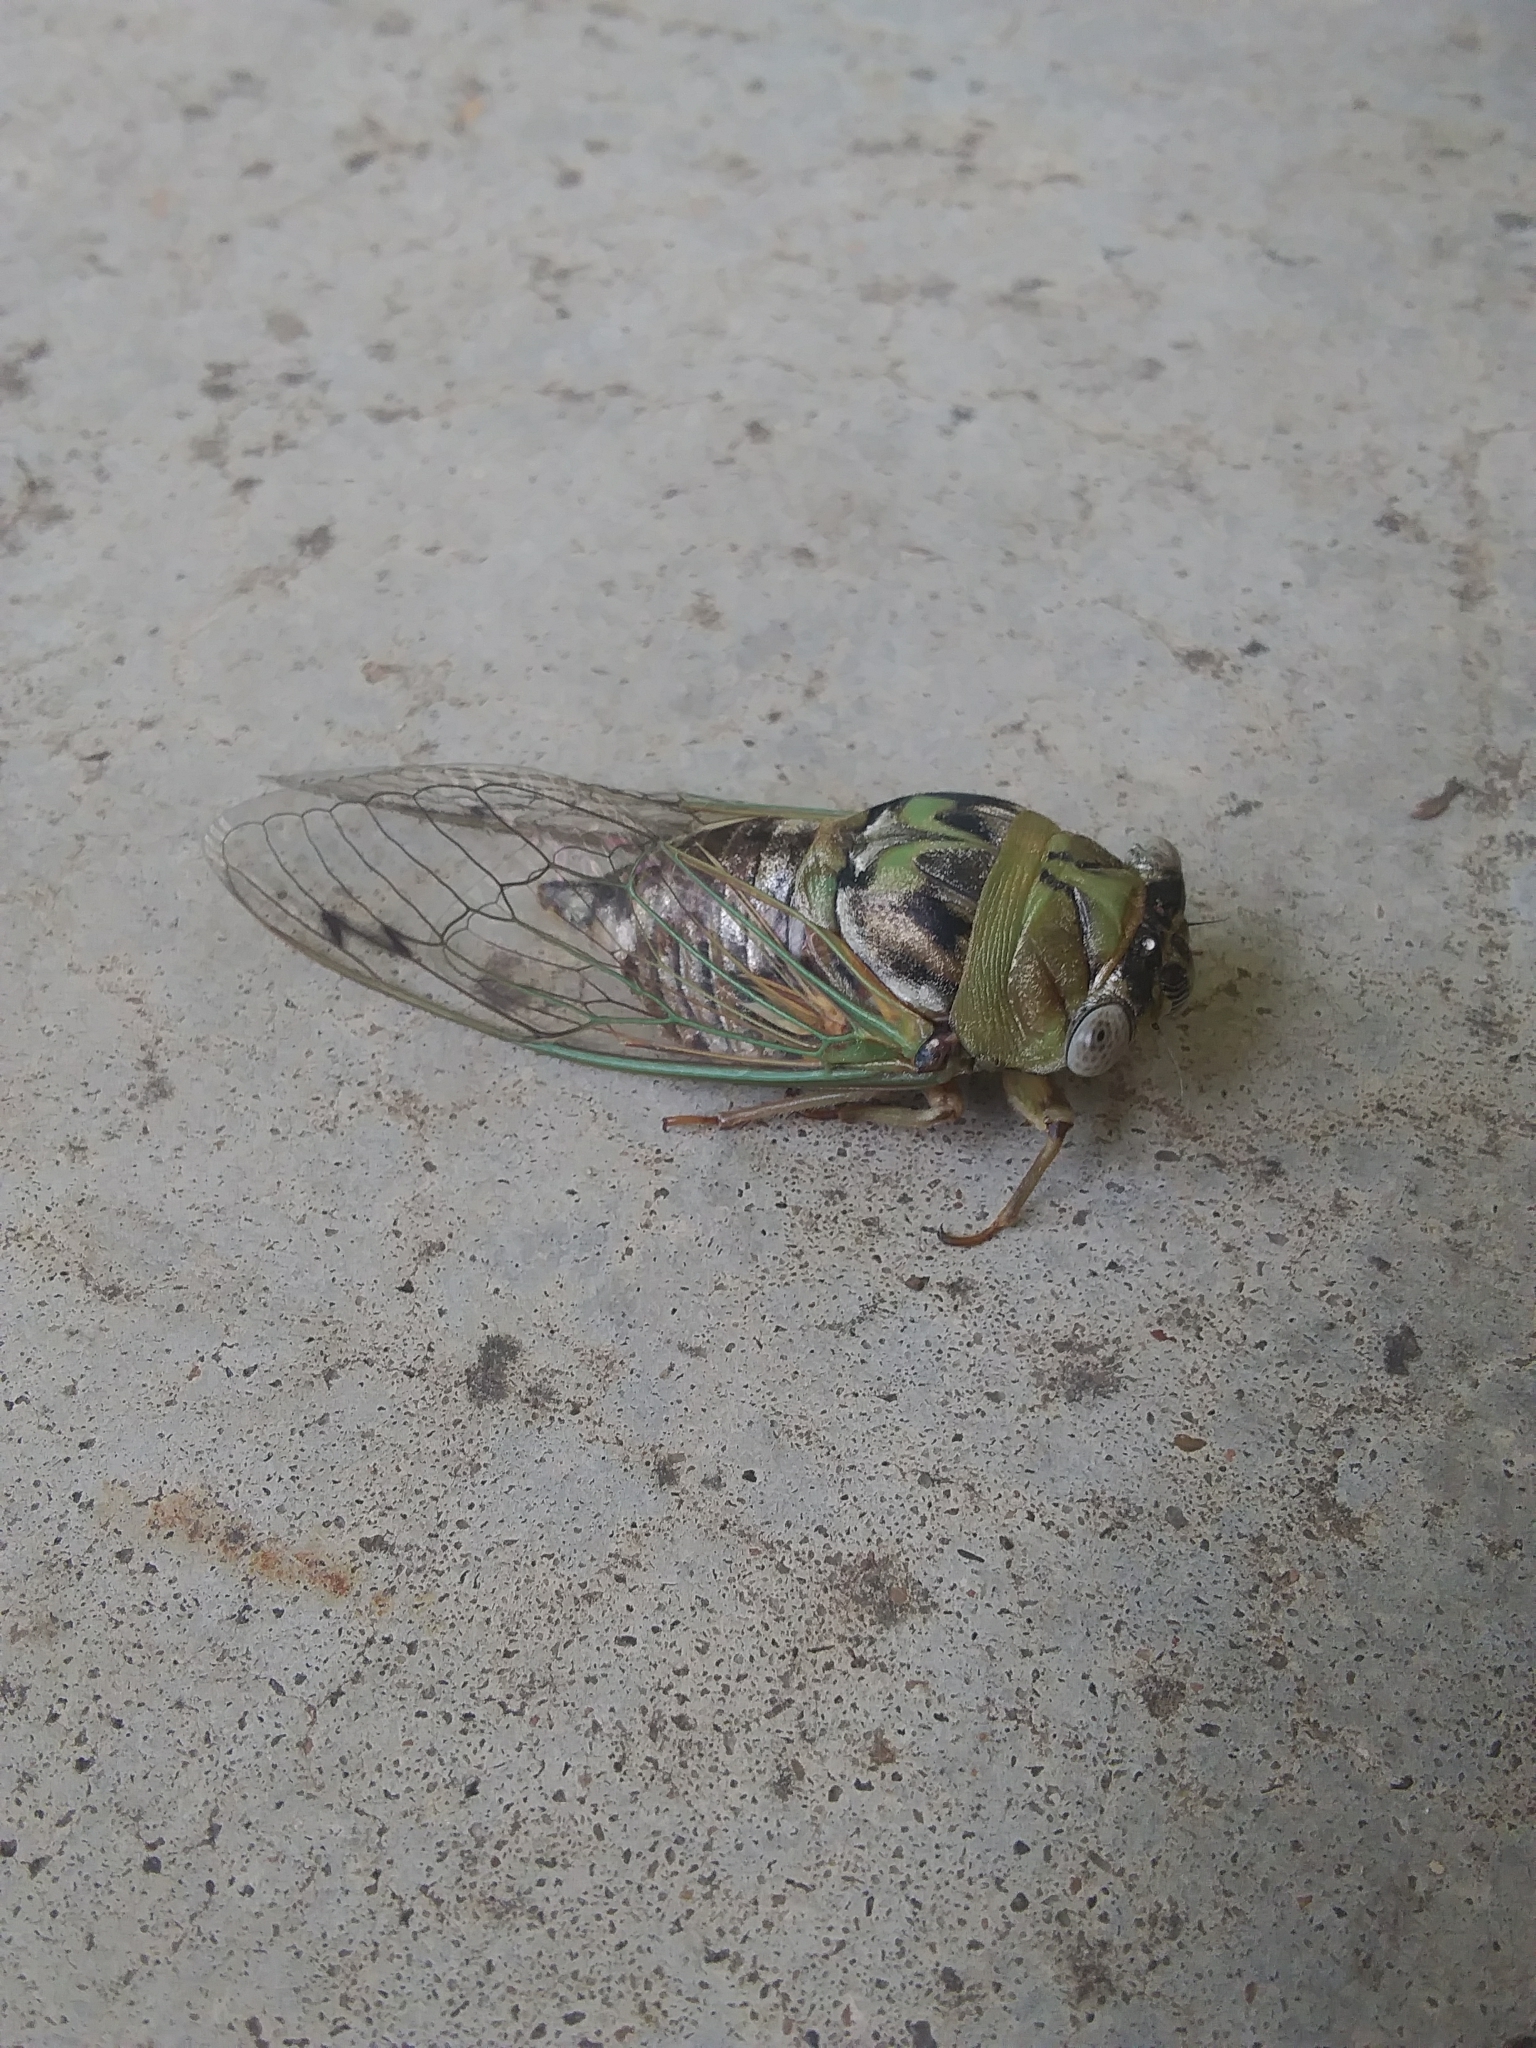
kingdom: Animalia
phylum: Arthropoda
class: Insecta
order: Hemiptera
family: Cicadidae
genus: Megatibicen
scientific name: Megatibicen resh
